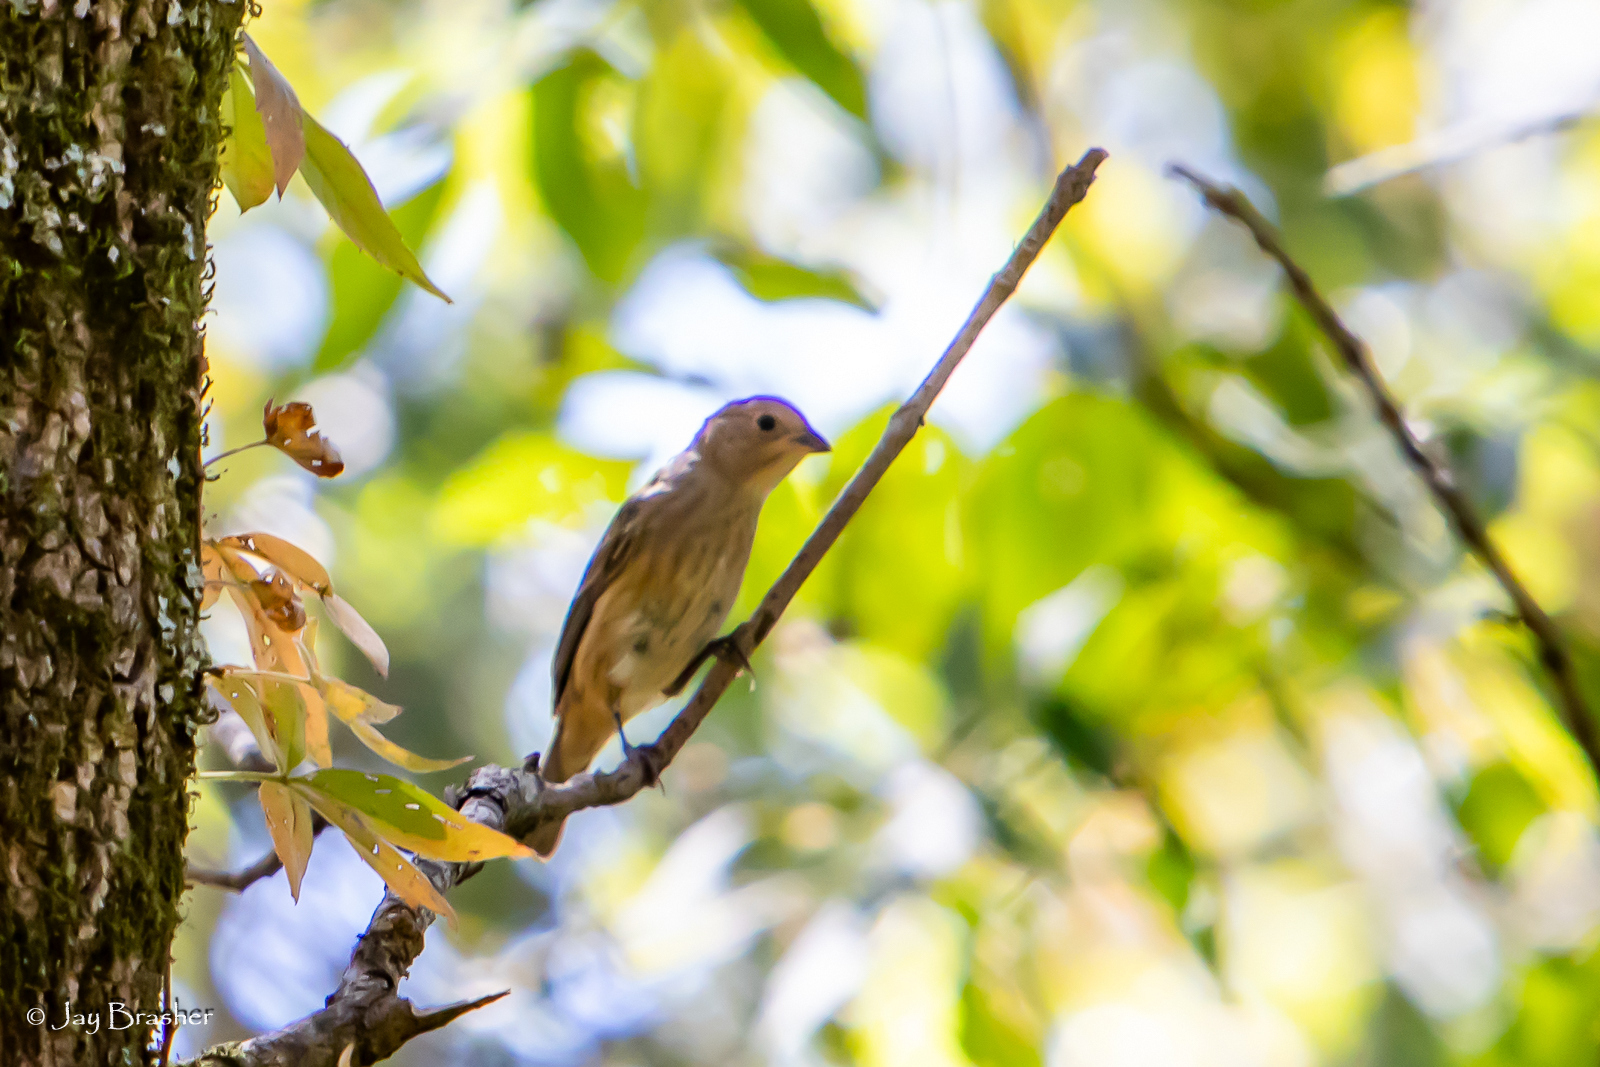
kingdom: Animalia
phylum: Chordata
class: Aves
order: Passeriformes
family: Cardinalidae
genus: Passerina
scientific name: Passerina cyanea
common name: Indigo bunting
